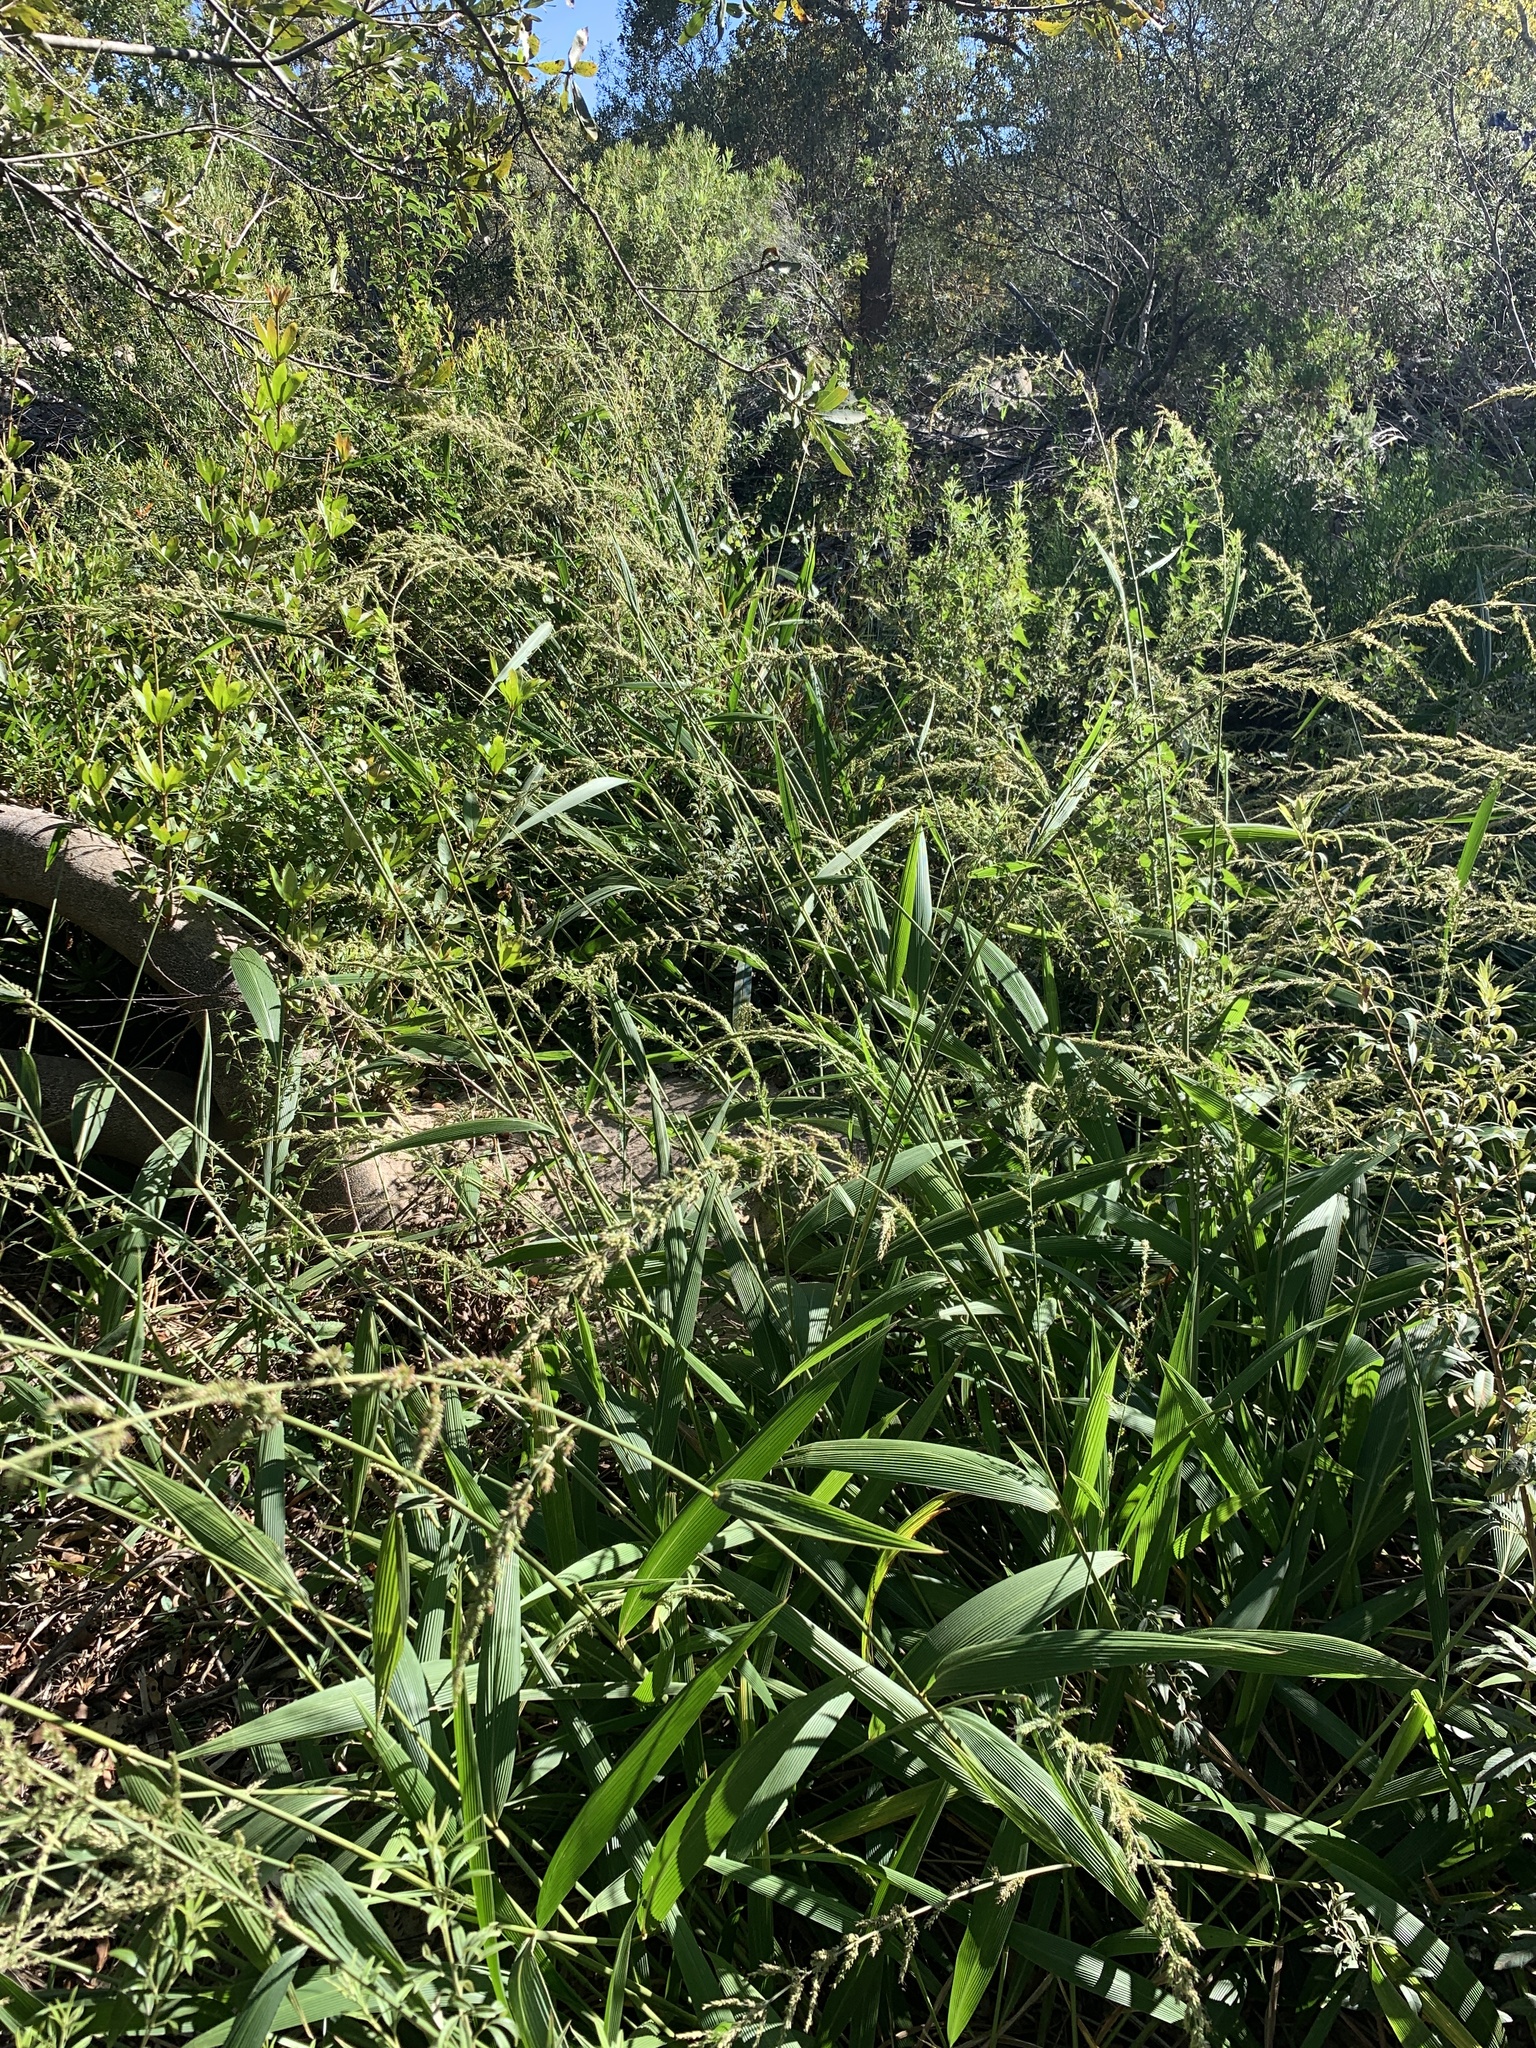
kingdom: Plantae
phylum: Tracheophyta
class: Liliopsida
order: Poales
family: Poaceae
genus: Setaria
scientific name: Setaria megaphylla
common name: Bigleaf bristlegrass
